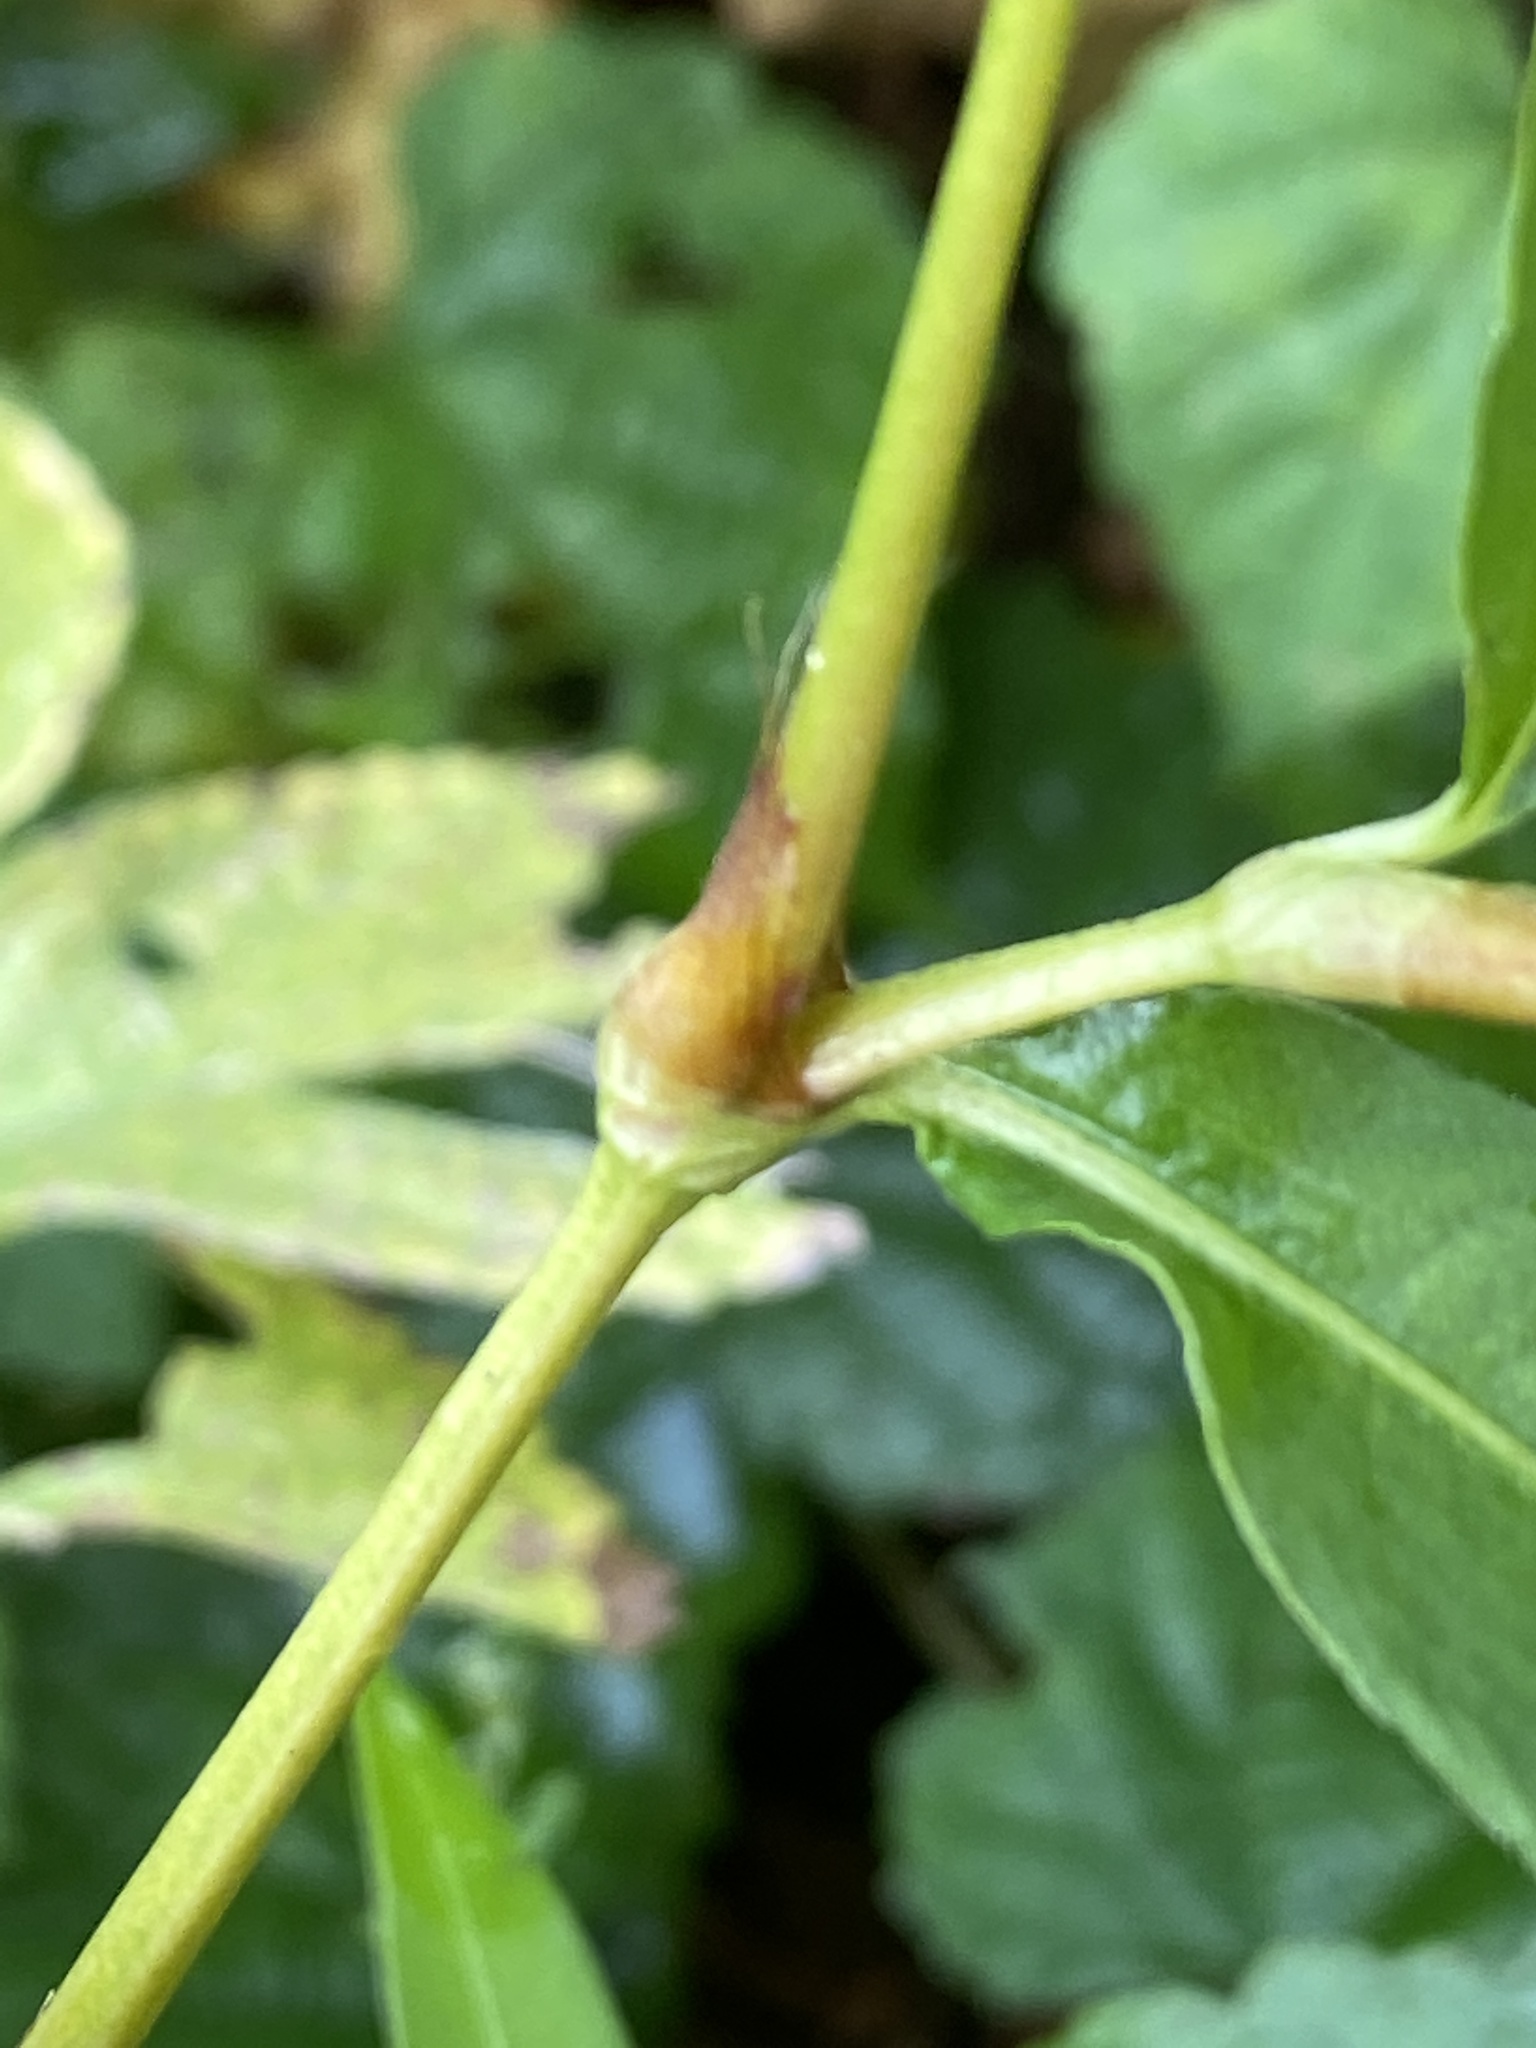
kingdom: Plantae
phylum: Tracheophyta
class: Magnoliopsida
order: Caryophyllales
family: Polygonaceae
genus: Persicaria
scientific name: Persicaria punctata
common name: Dotted smartweed
